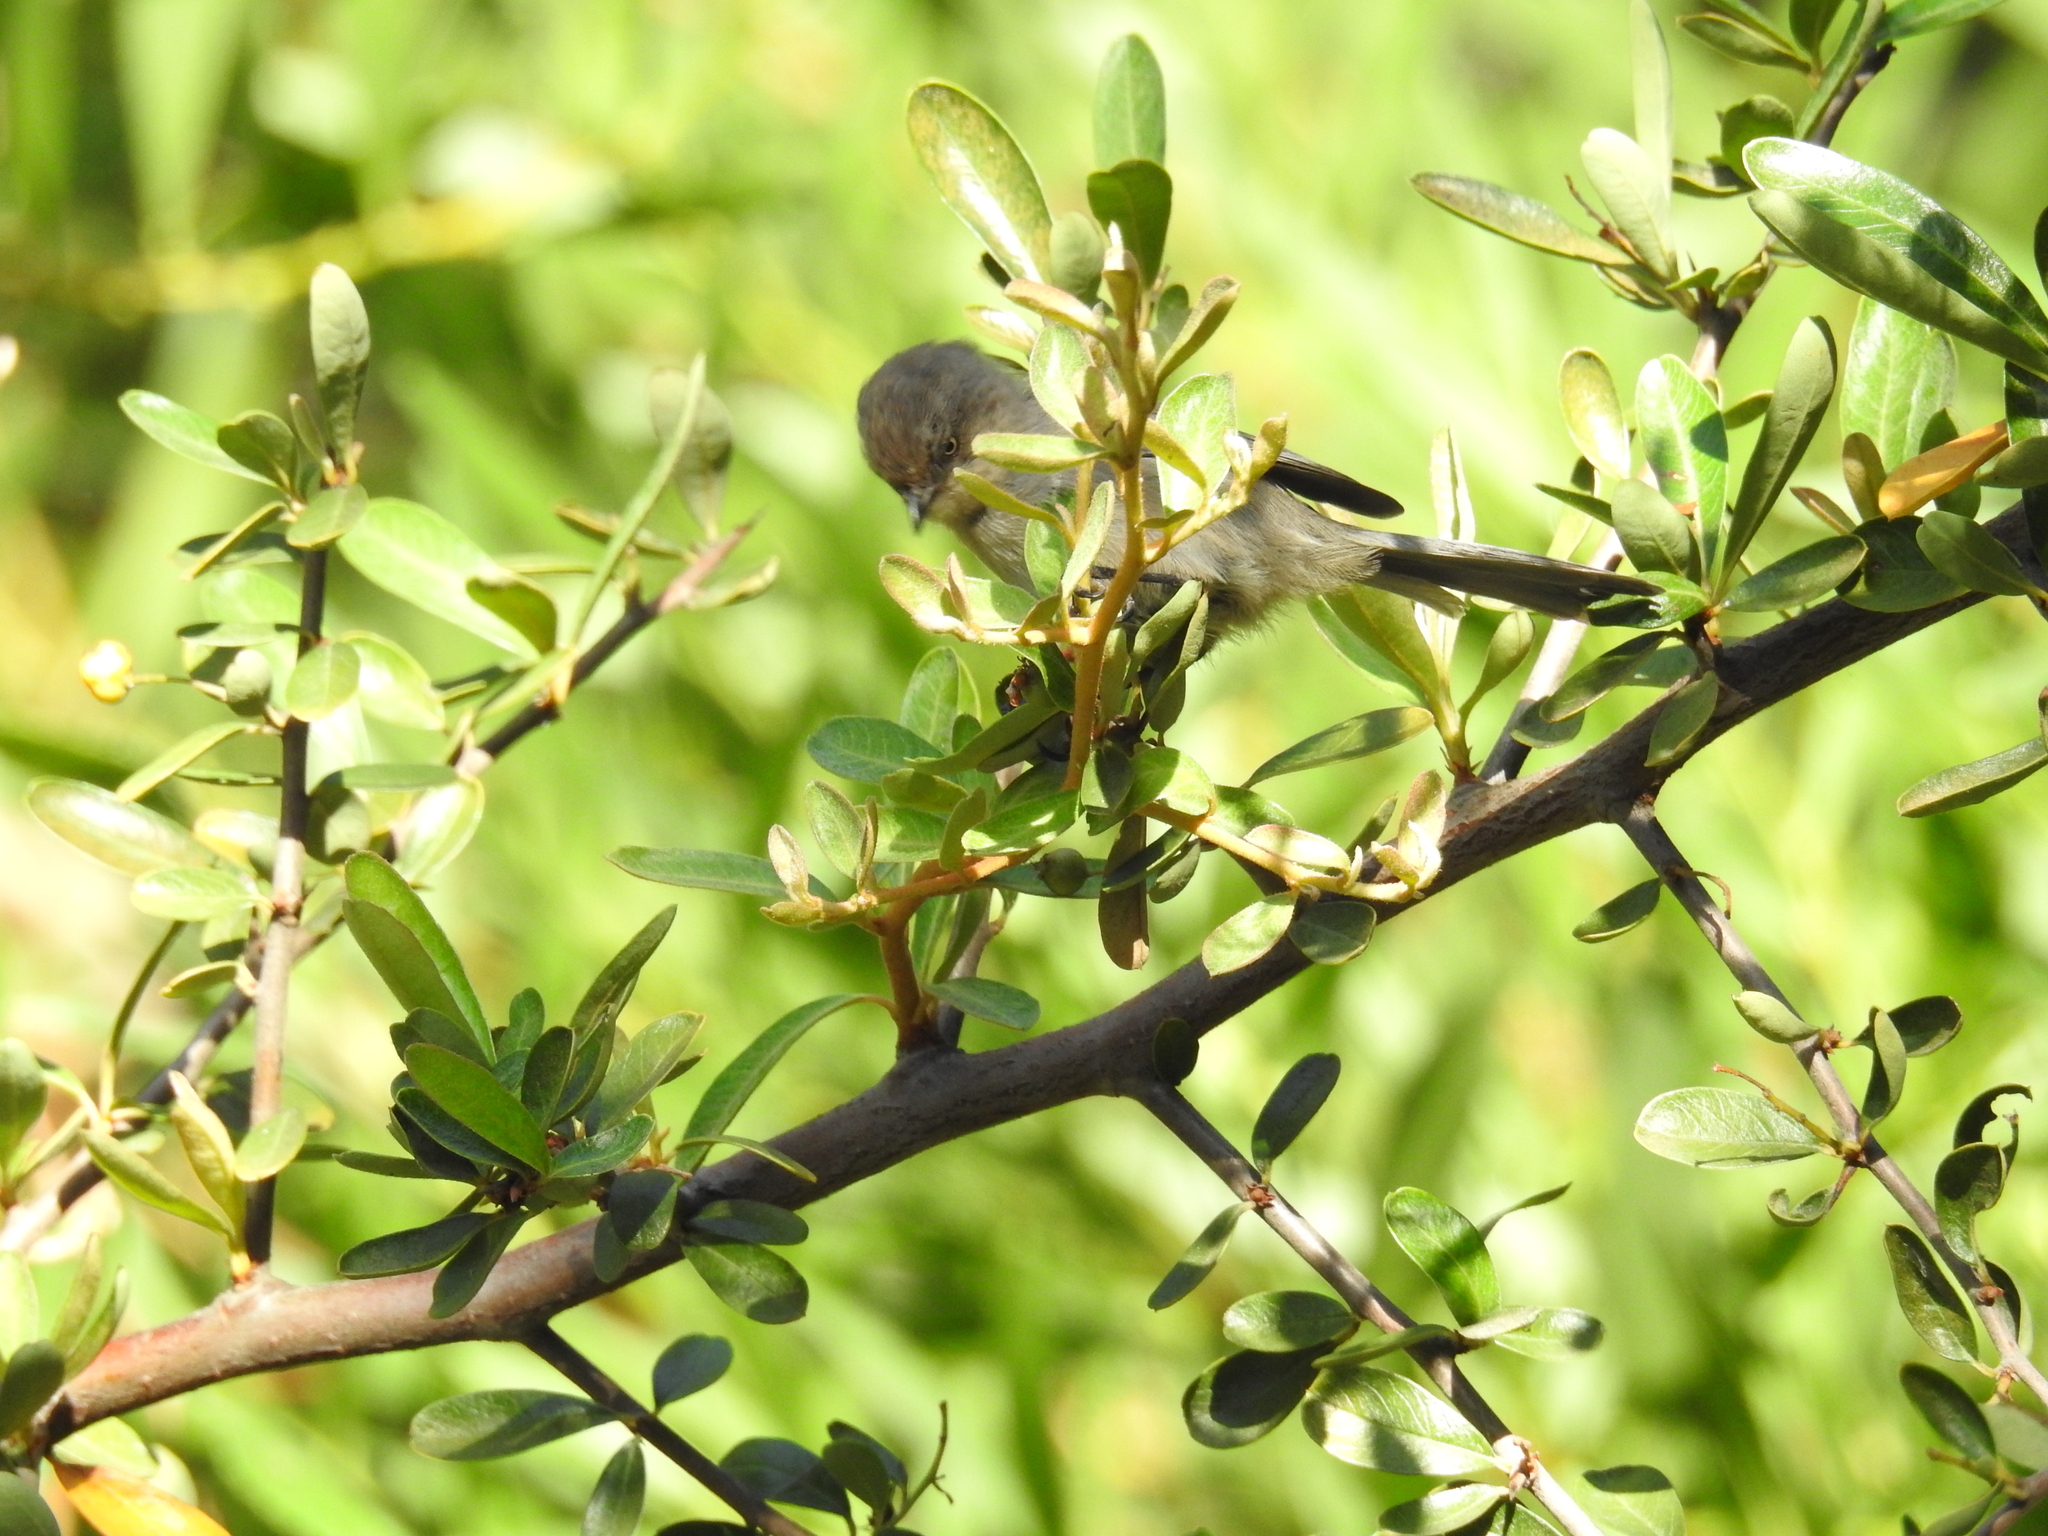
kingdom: Animalia
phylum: Chordata
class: Aves
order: Passeriformes
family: Aegithalidae
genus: Psaltriparus
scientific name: Psaltriparus minimus
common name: American bushtit
